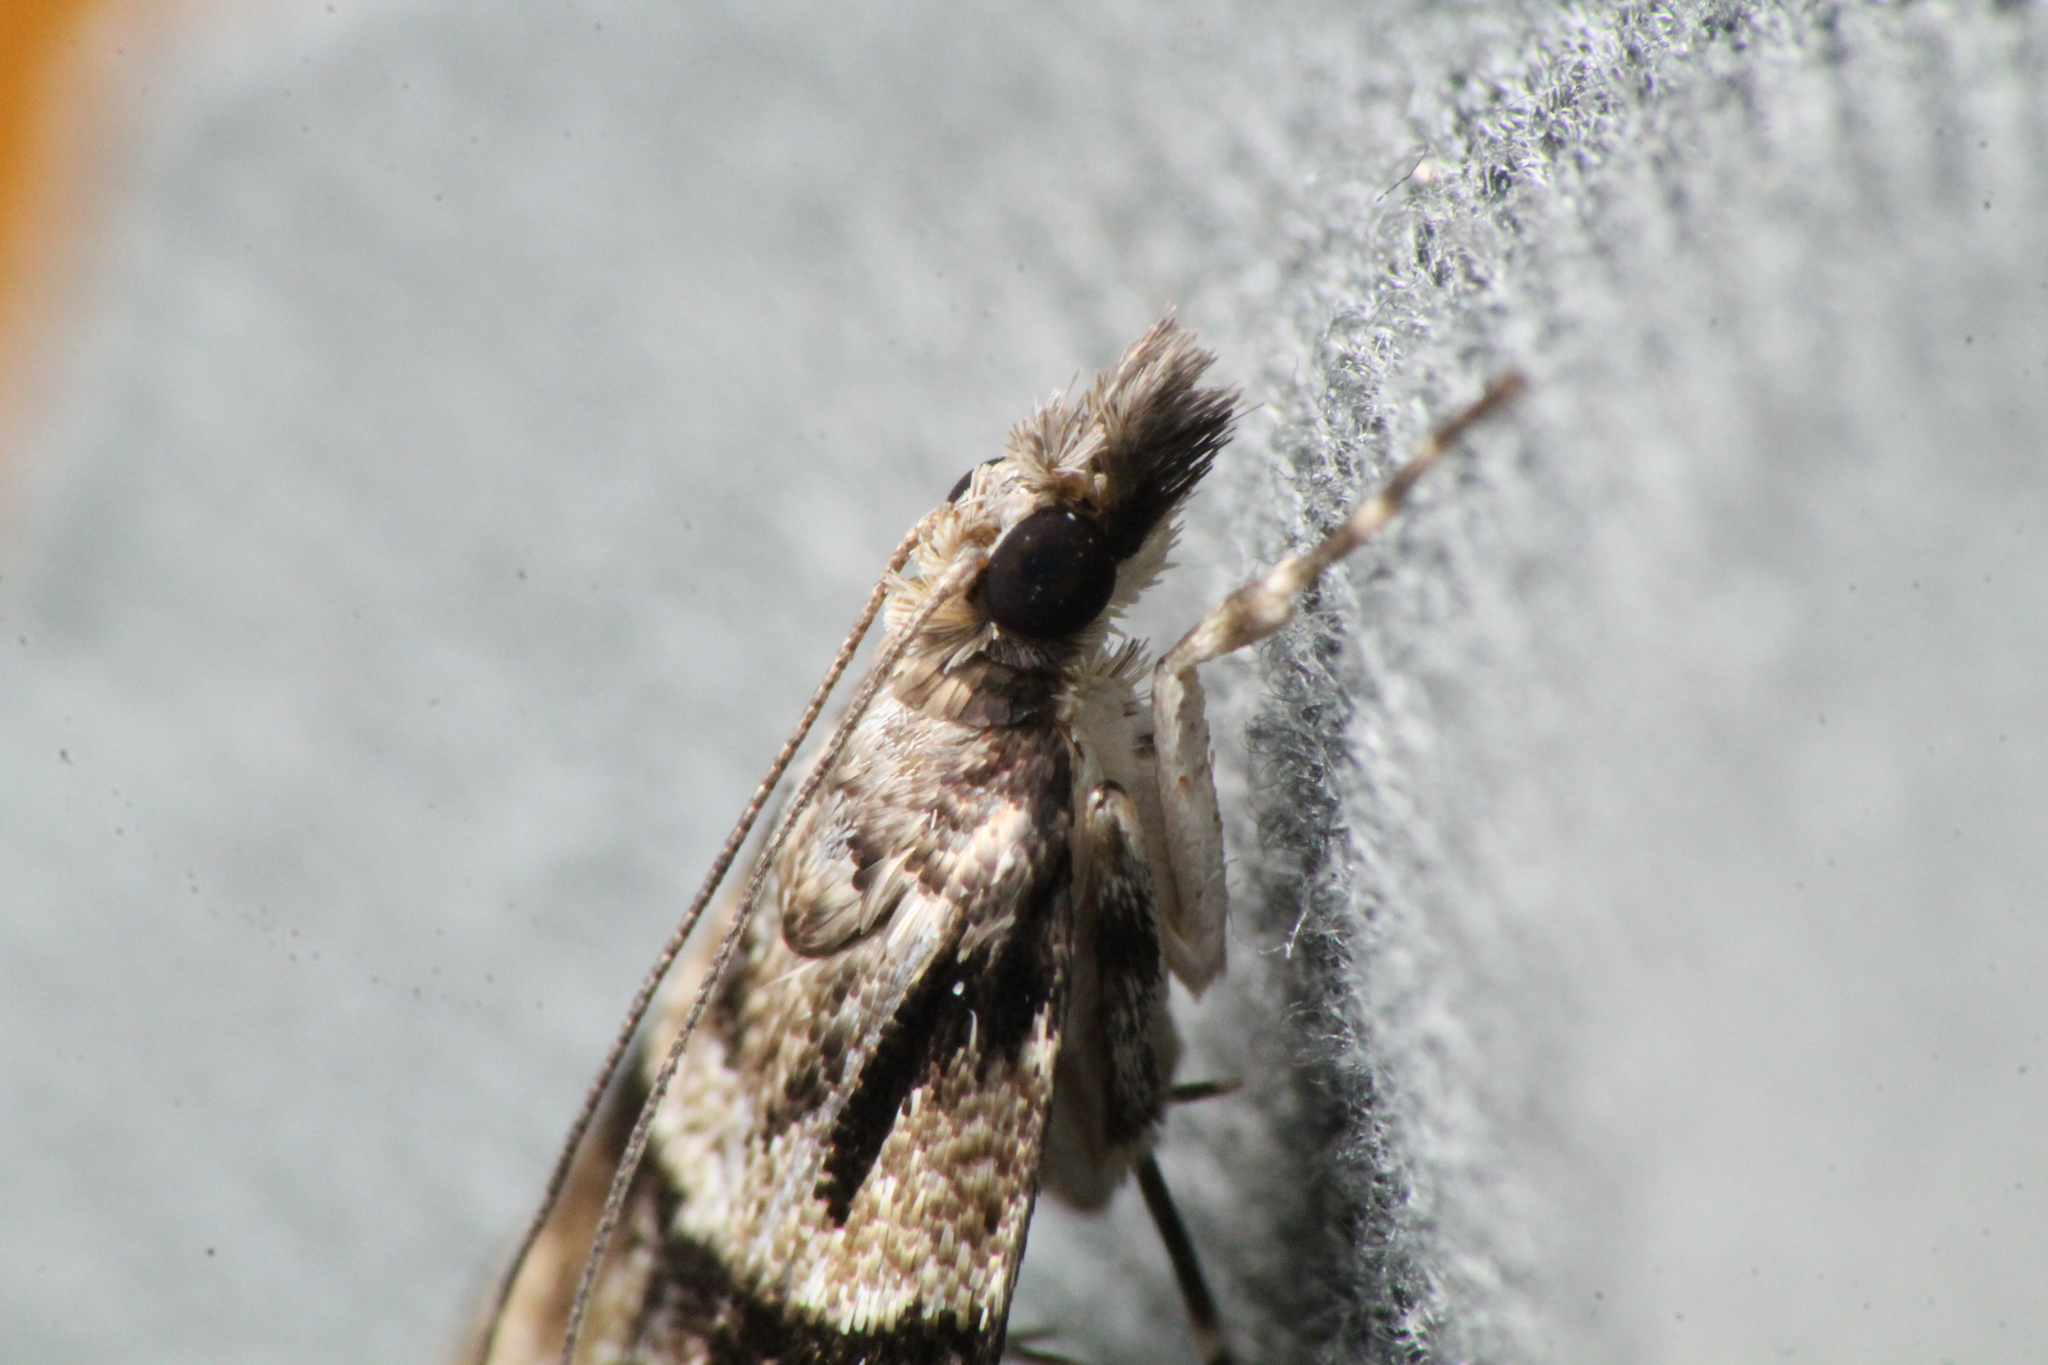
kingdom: Animalia
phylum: Arthropoda
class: Insecta
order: Lepidoptera
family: Crambidae
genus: Eudonia
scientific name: Eudonia colpota
